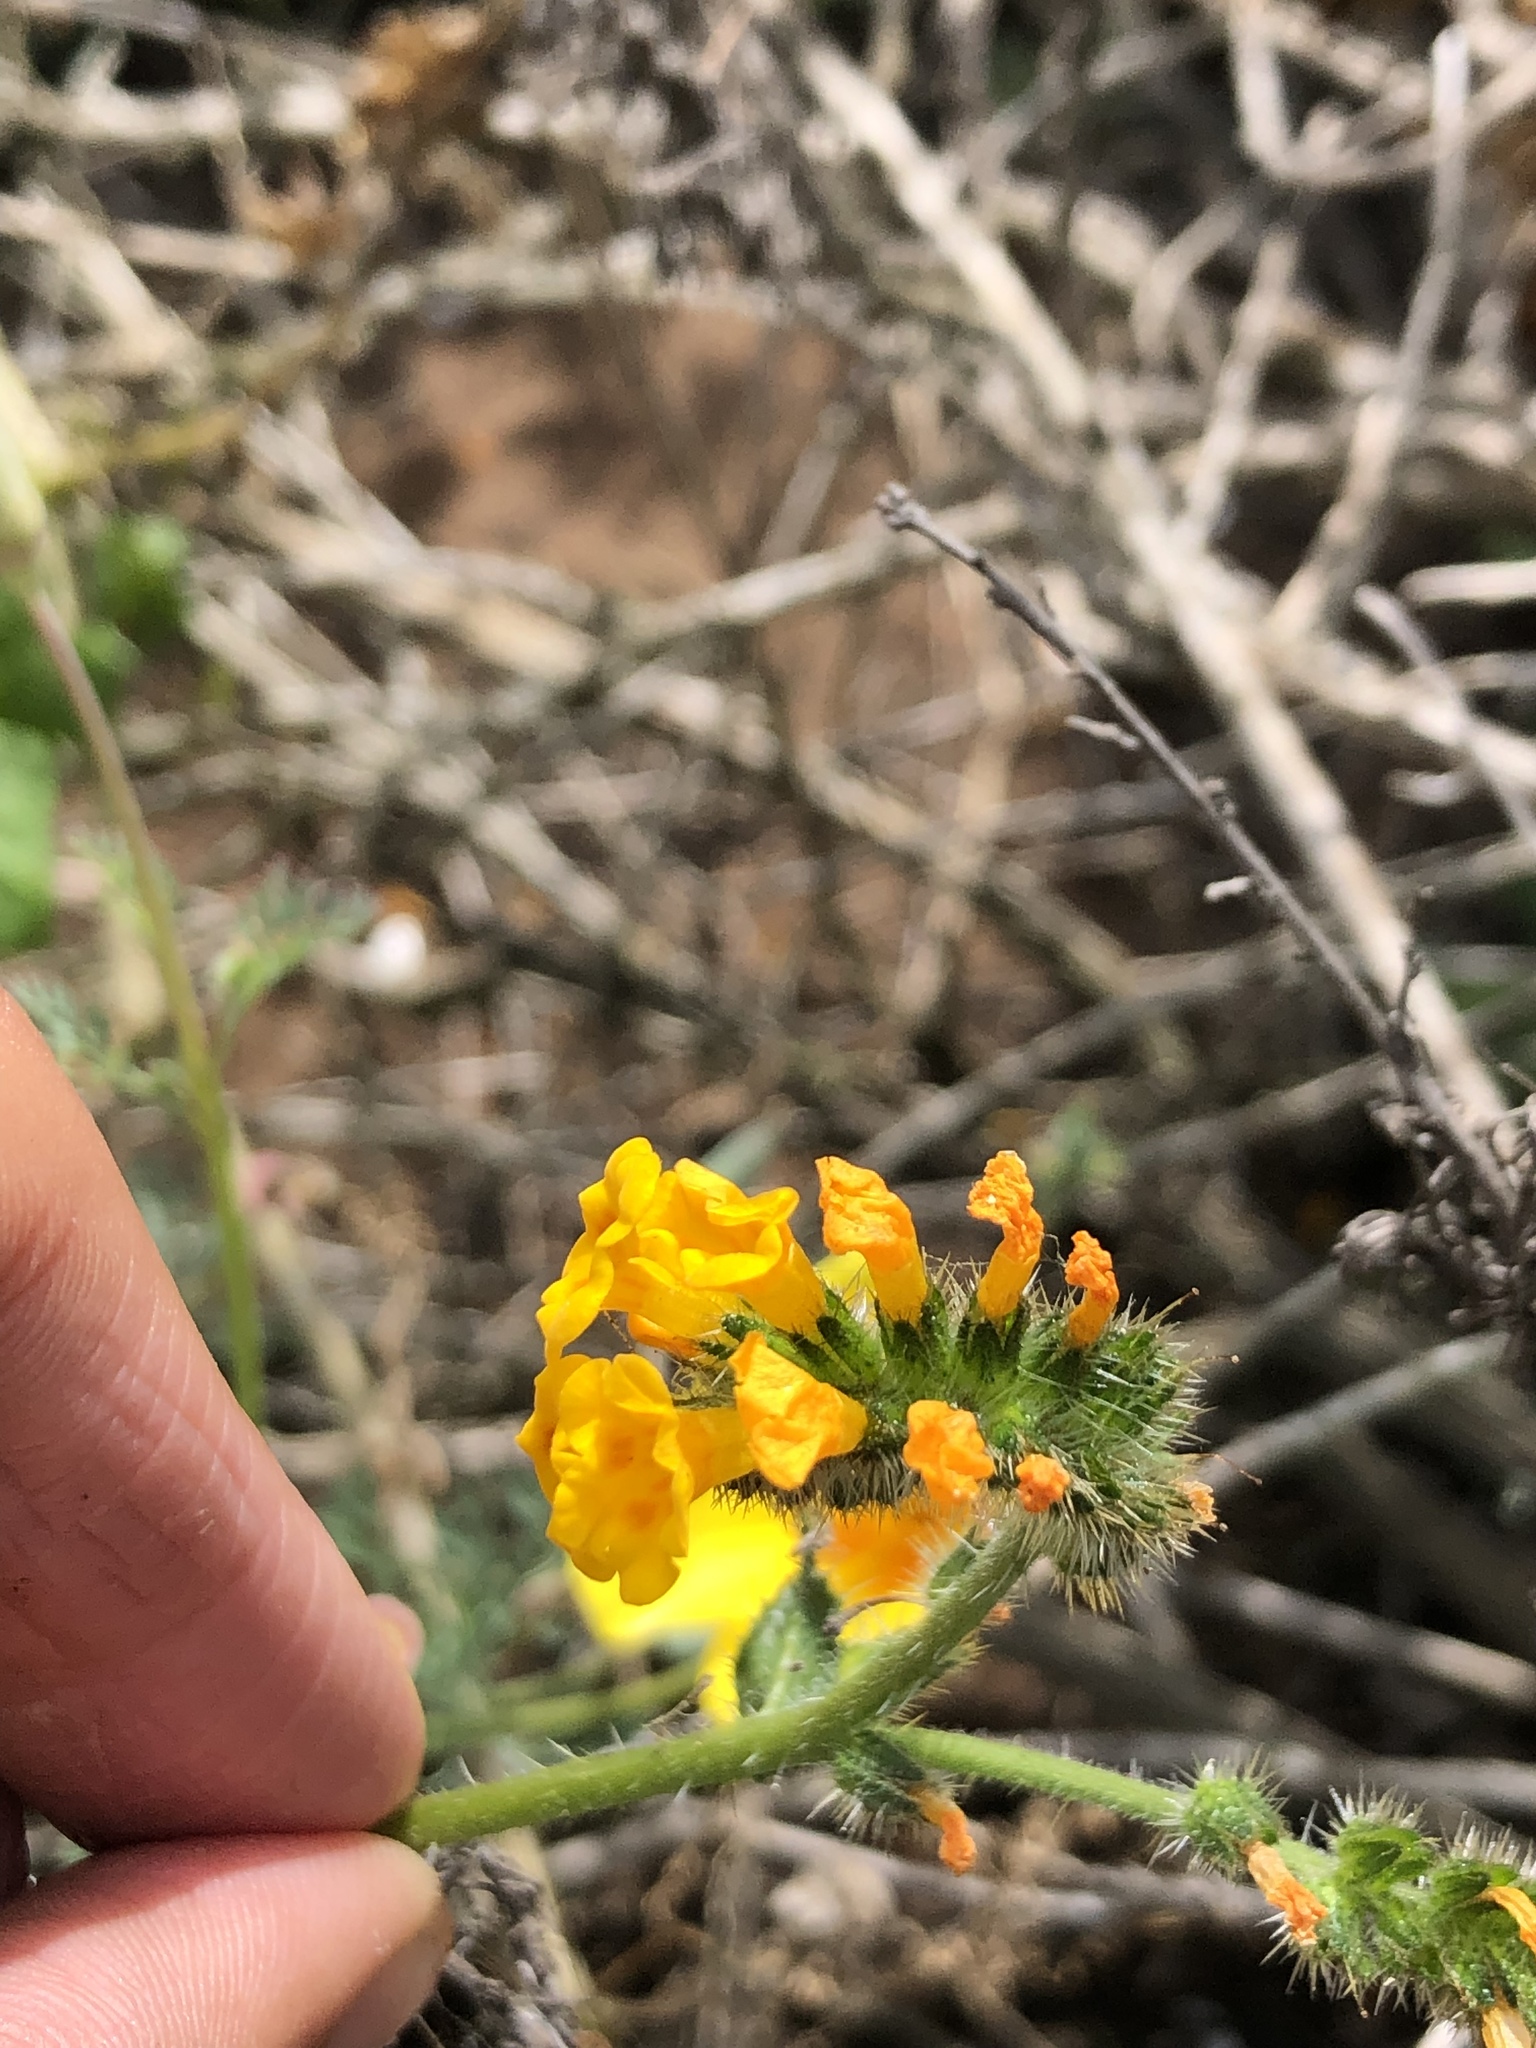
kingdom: Plantae
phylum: Tracheophyta
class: Magnoliopsida
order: Boraginales
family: Boraginaceae
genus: Amsinckia
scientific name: Amsinckia spectabilis
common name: Seaside fiddleneck
